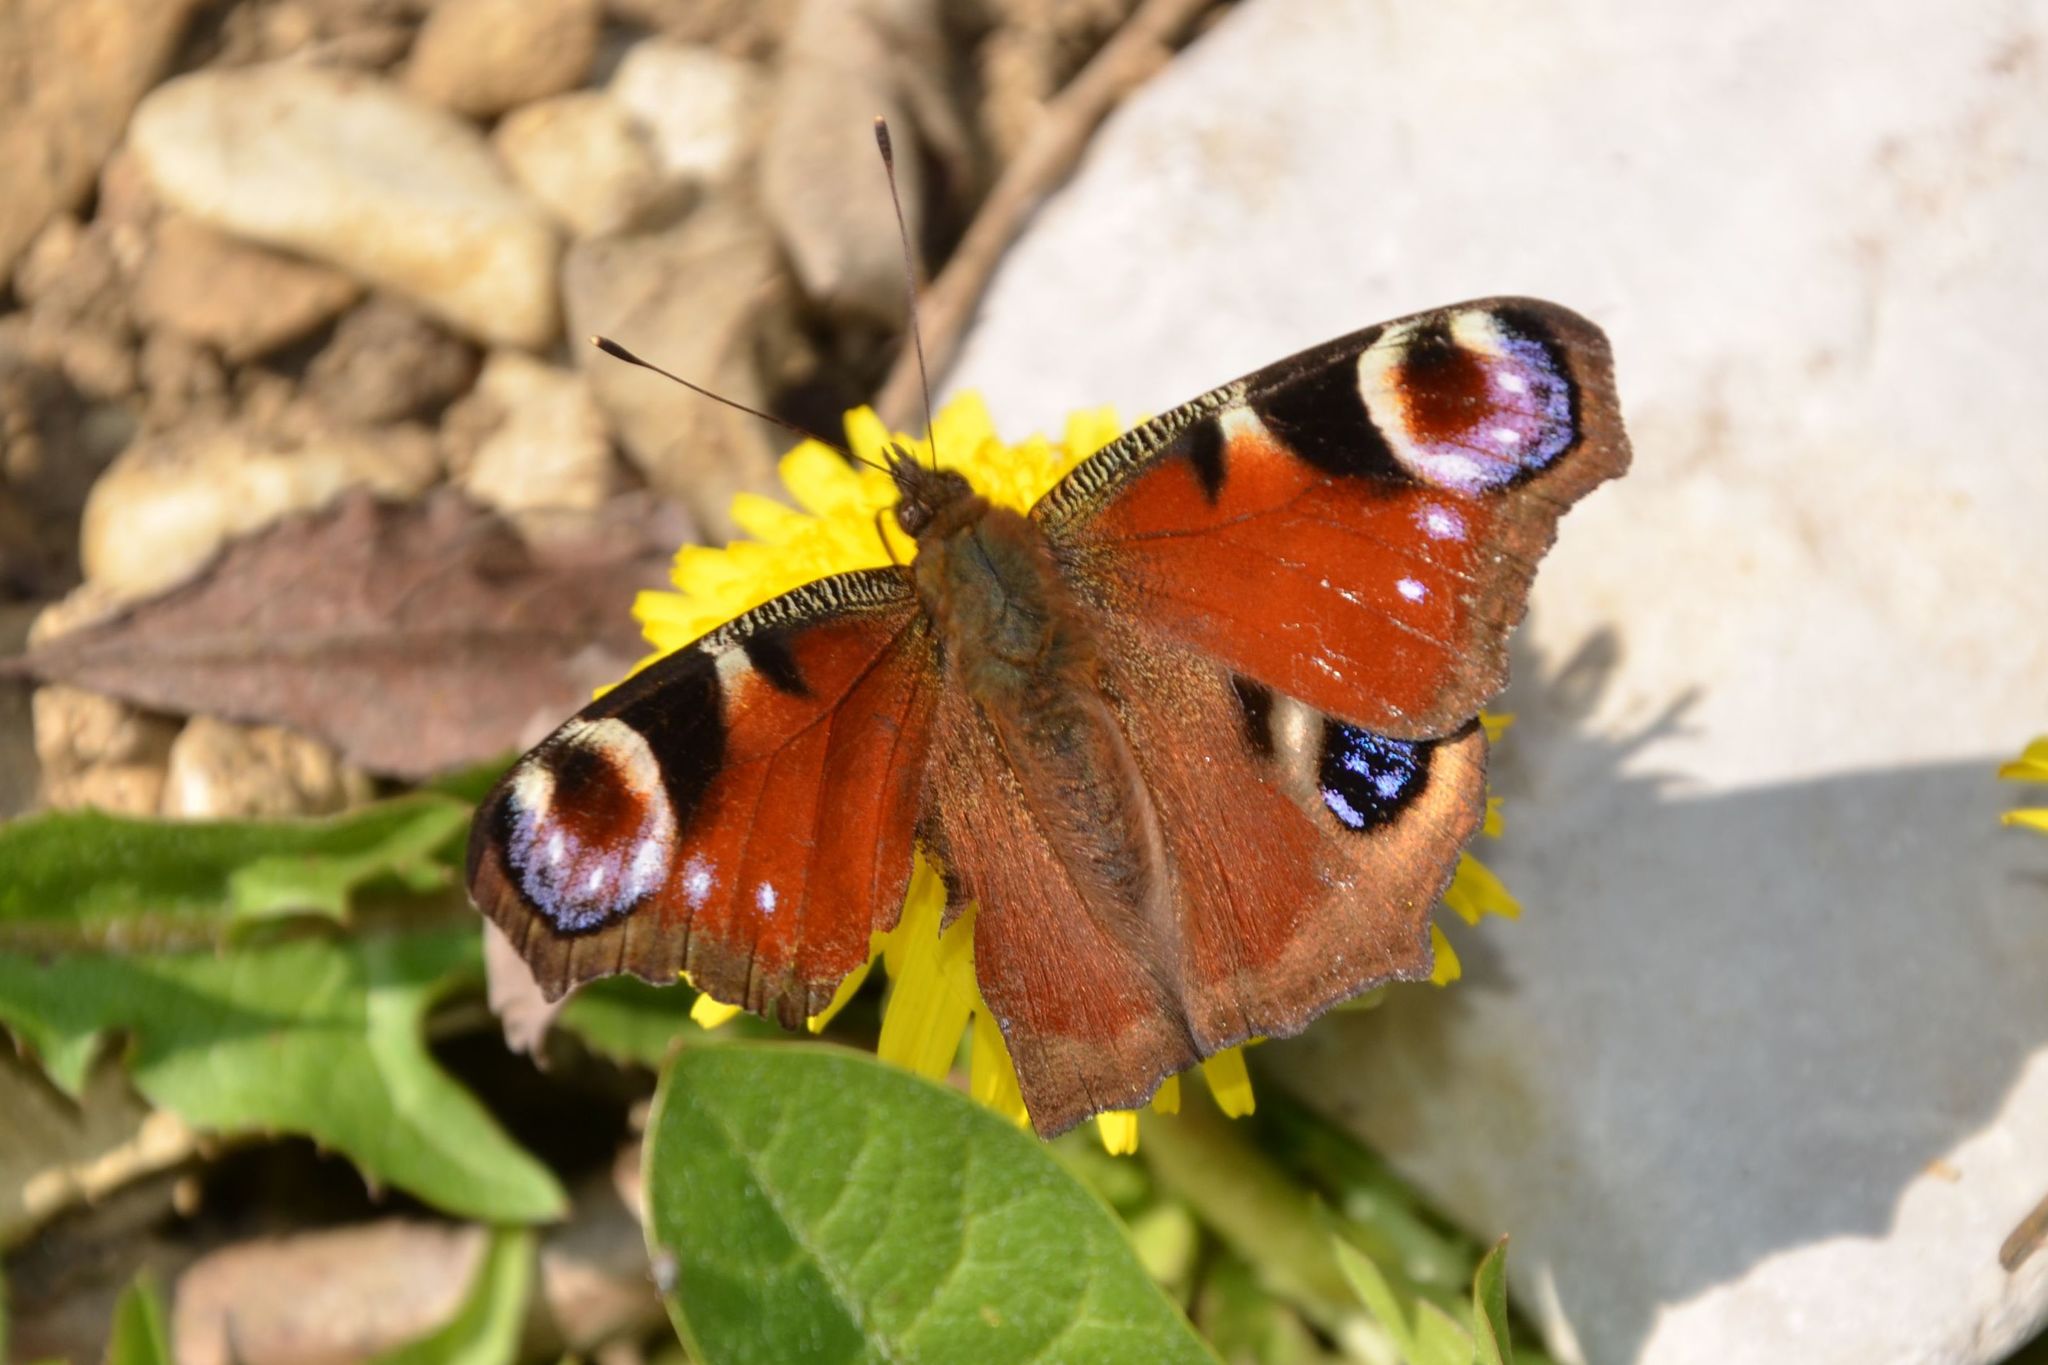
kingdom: Animalia
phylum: Arthropoda
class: Insecta
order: Lepidoptera
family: Nymphalidae
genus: Aglais
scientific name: Aglais io
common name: Peacock
